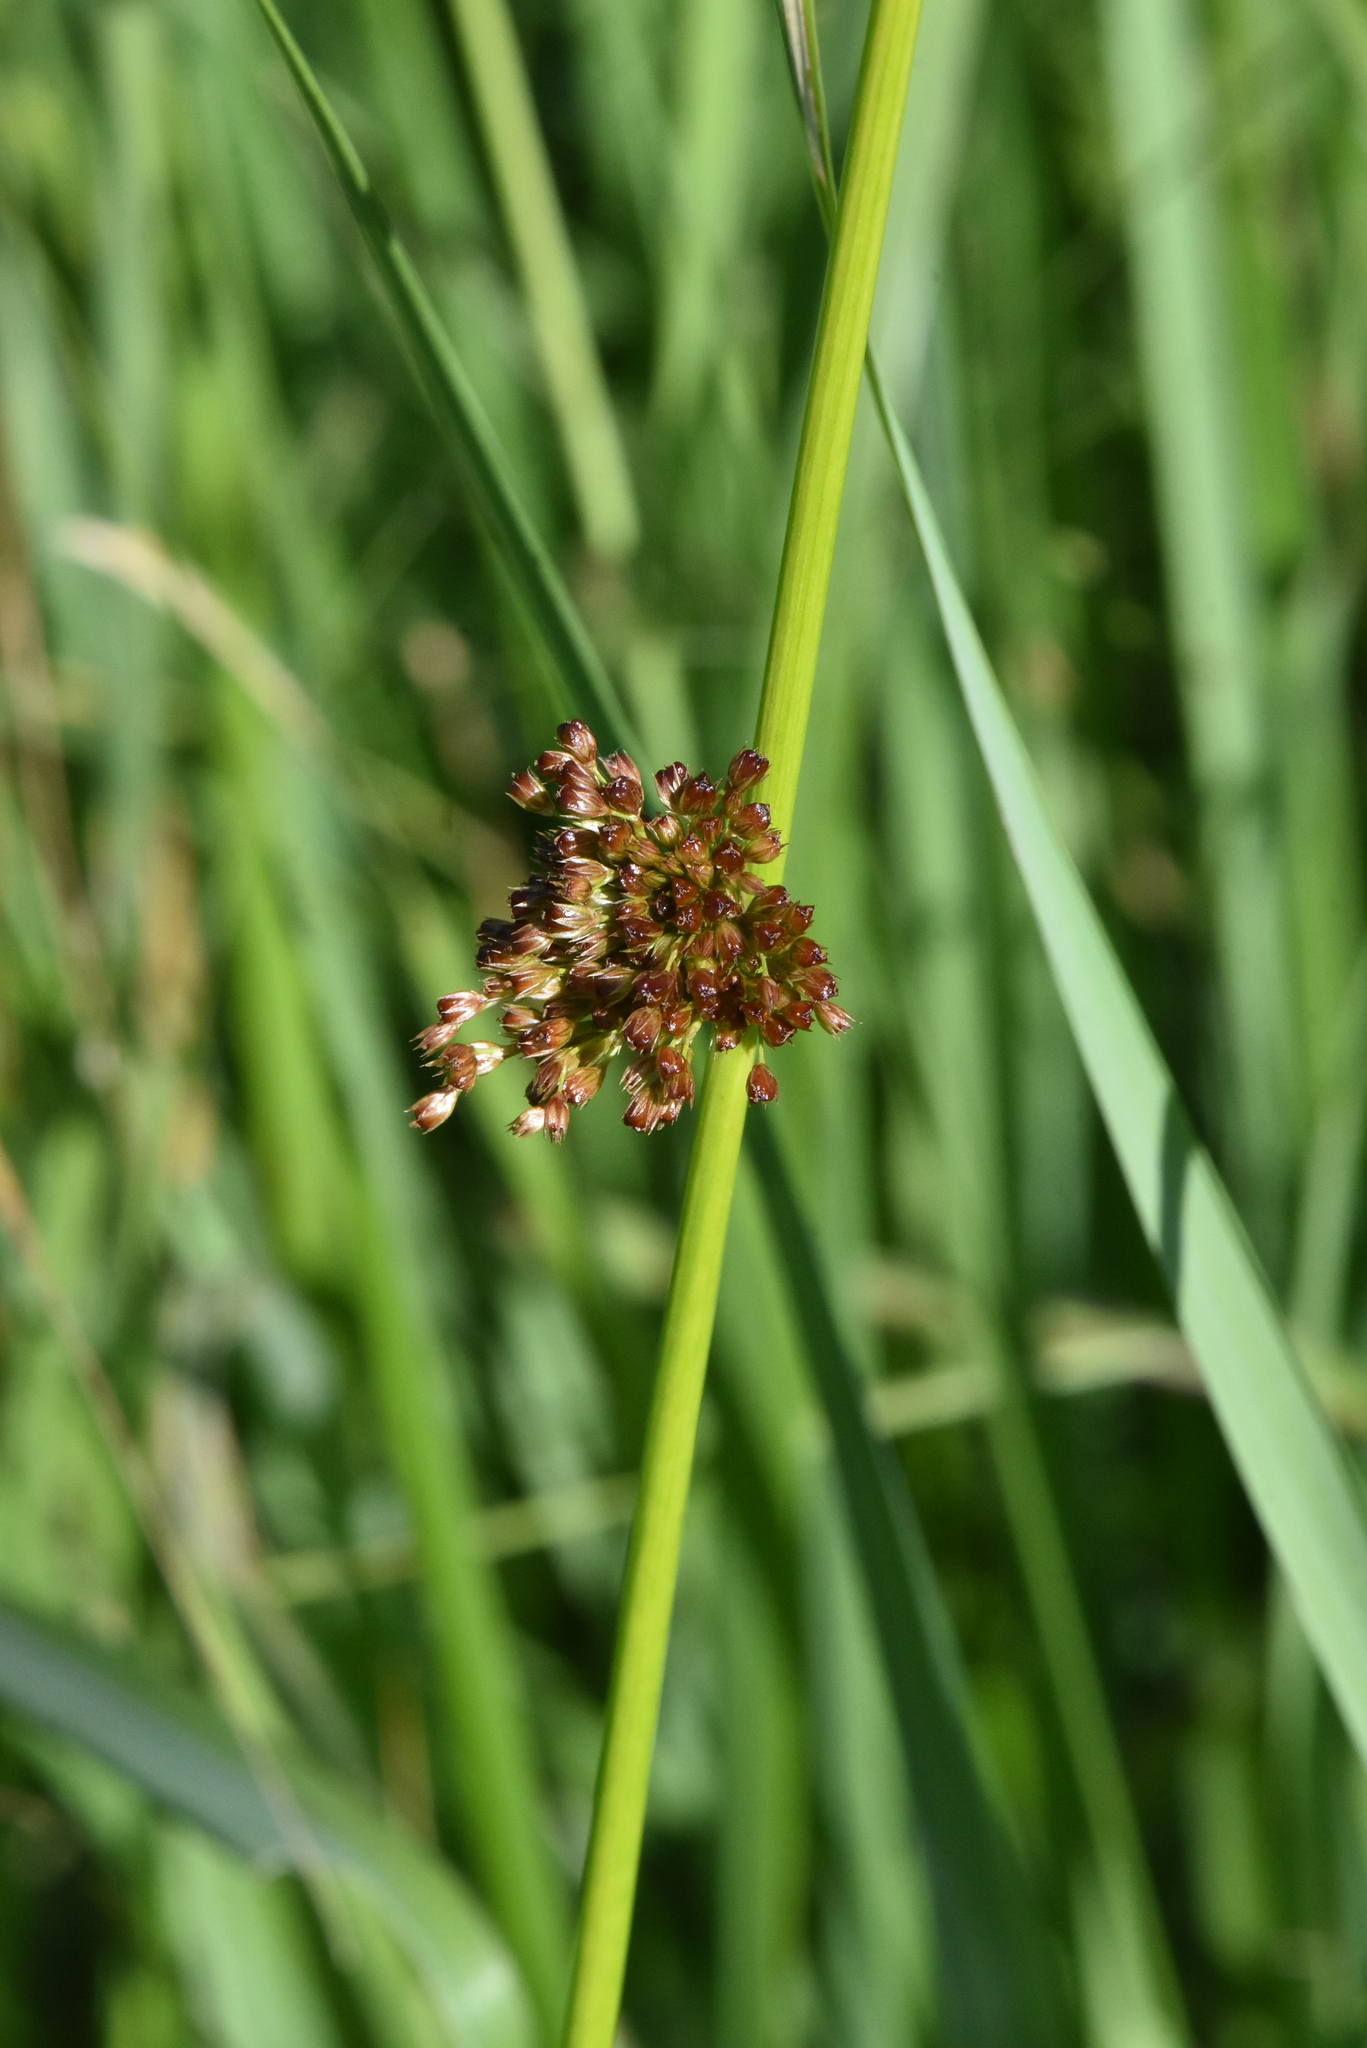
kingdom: Plantae
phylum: Tracheophyta
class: Liliopsida
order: Poales
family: Juncaceae
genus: Juncus
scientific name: Juncus effusus
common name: Soft rush
